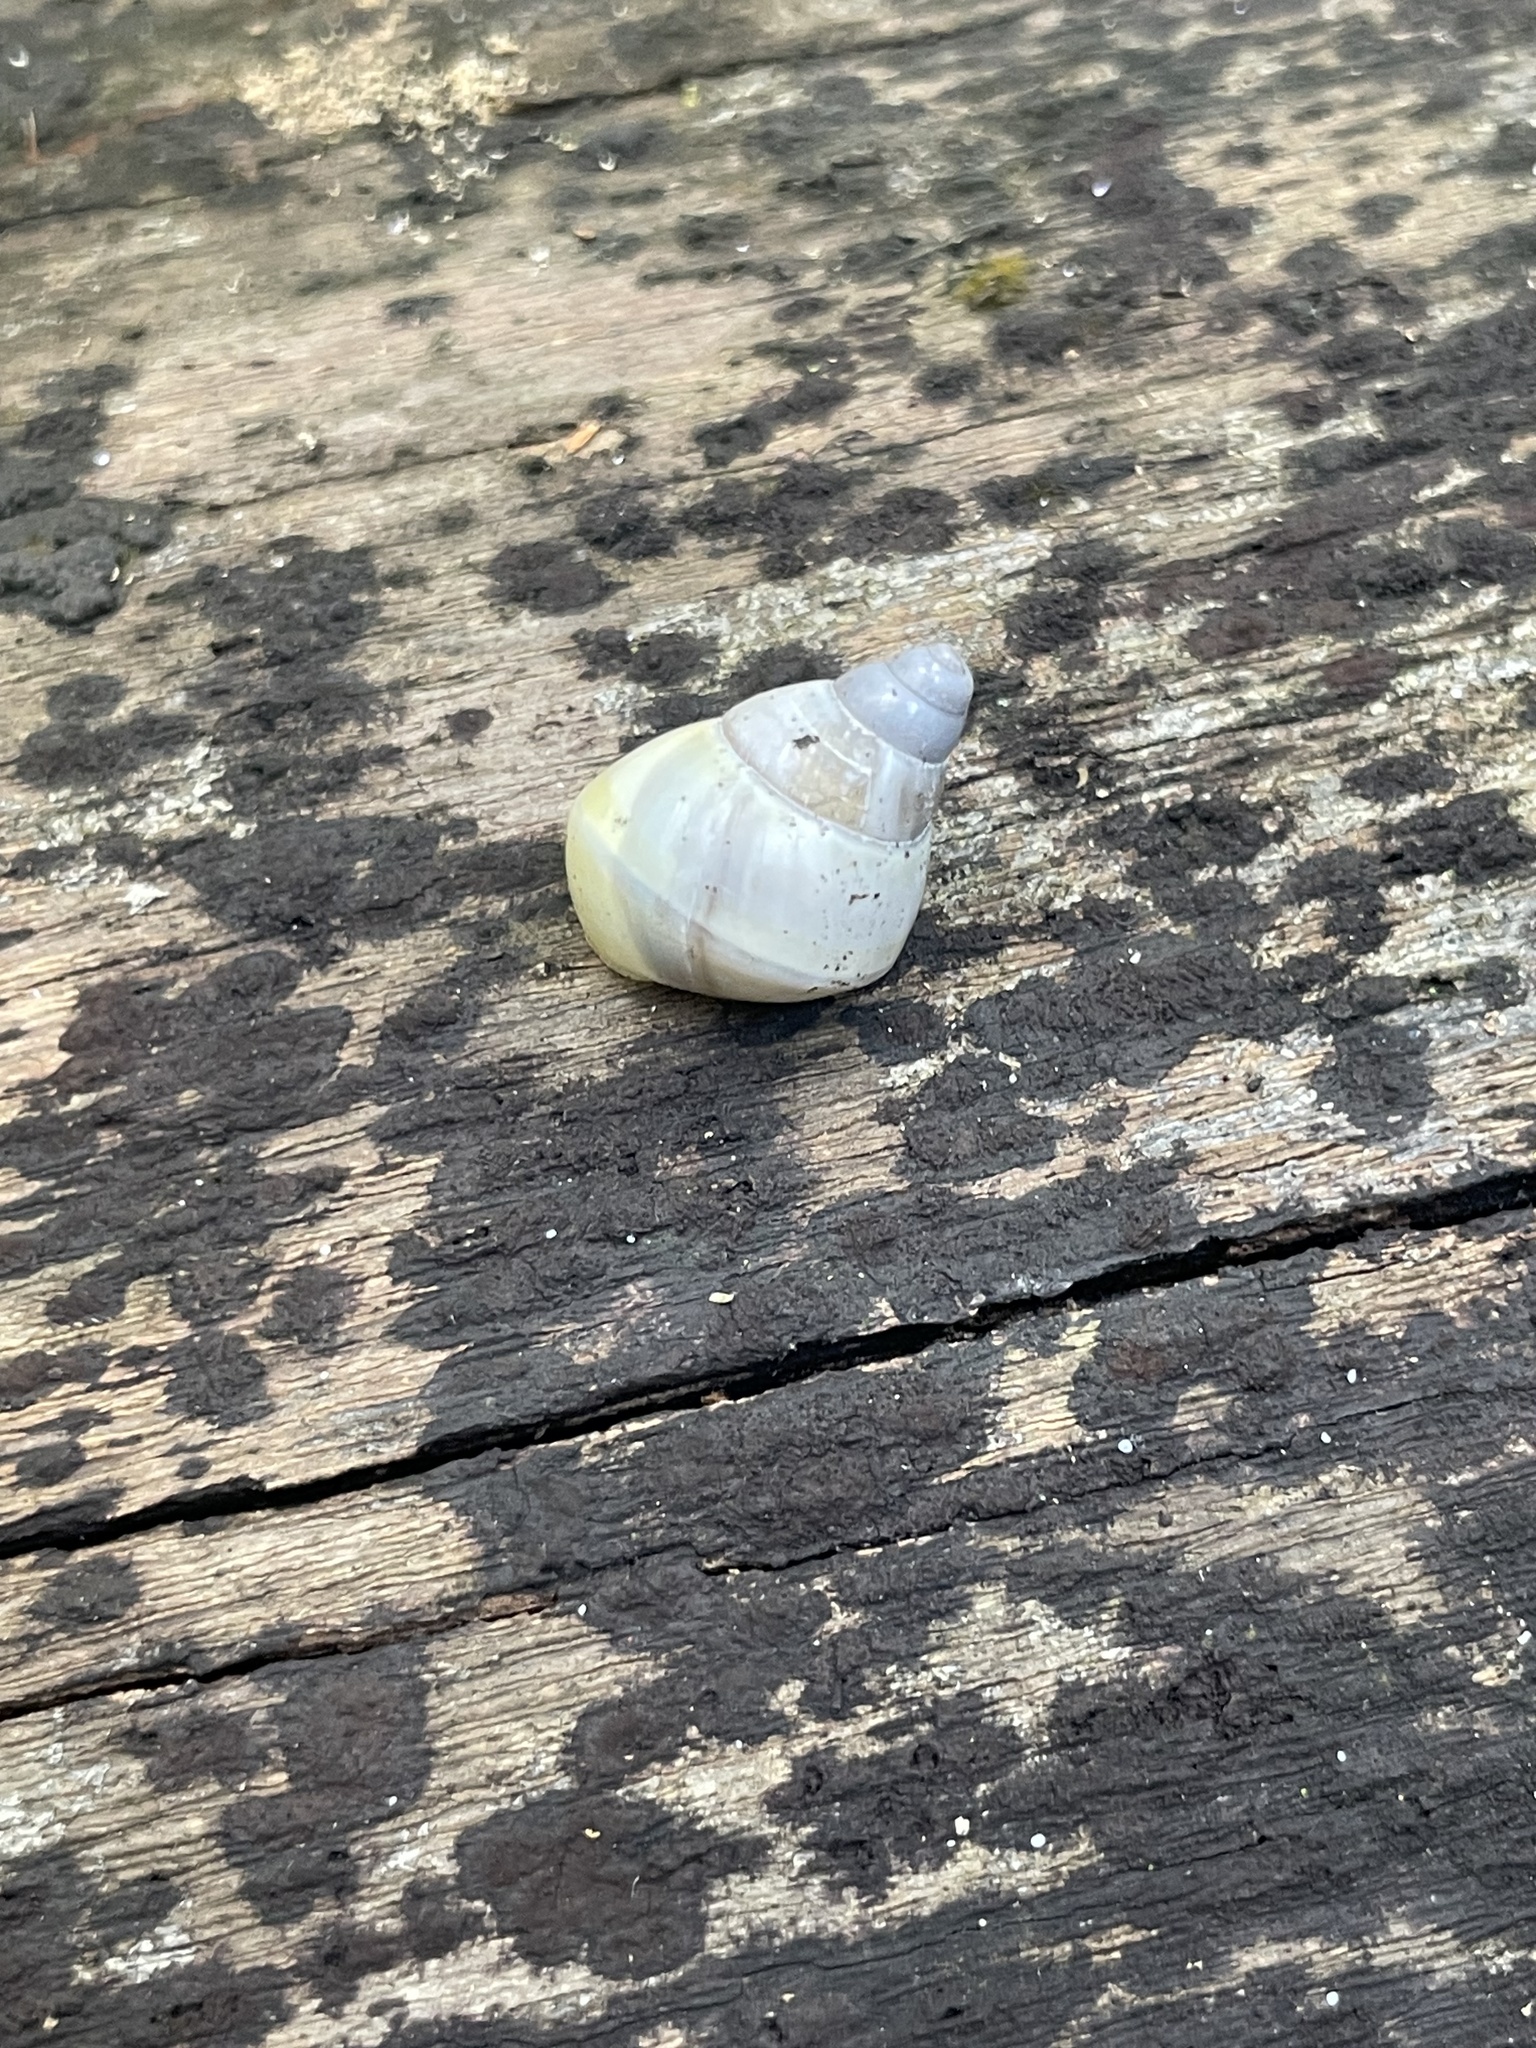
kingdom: Animalia
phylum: Mollusca
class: Gastropoda
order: Stylommatophora
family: Orthalicidae
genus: Liguus
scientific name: Liguus fasciatus
